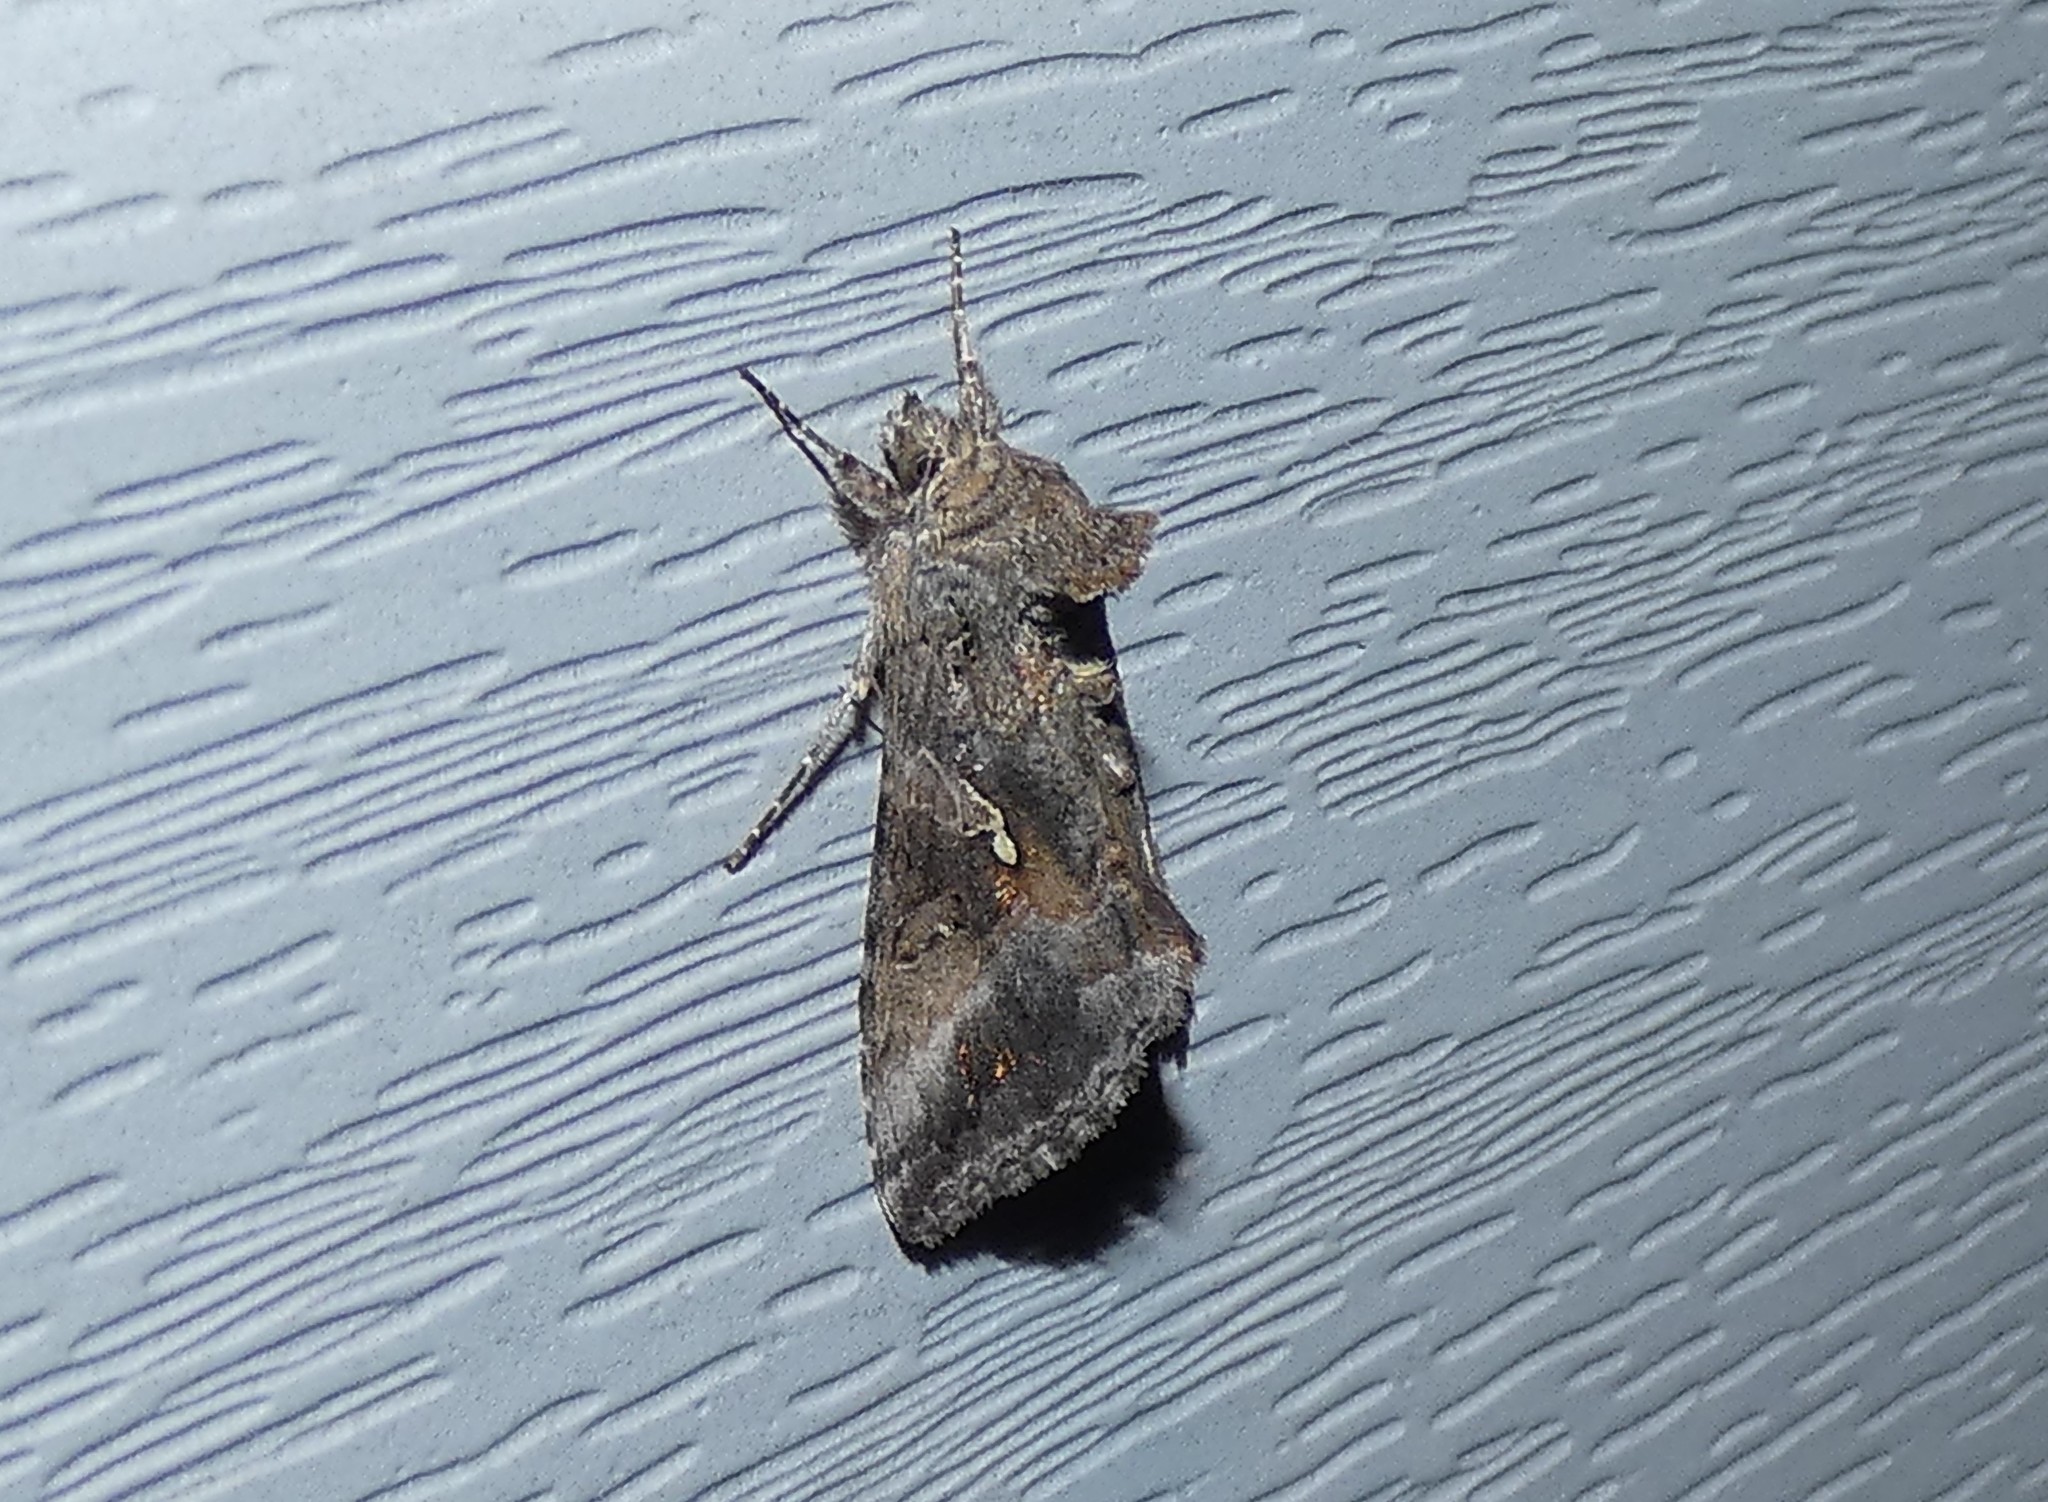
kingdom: Animalia
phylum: Arthropoda
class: Insecta
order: Lepidoptera
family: Noctuidae
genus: Rachiplusia
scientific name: Rachiplusia ou
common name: Gray looper moth
